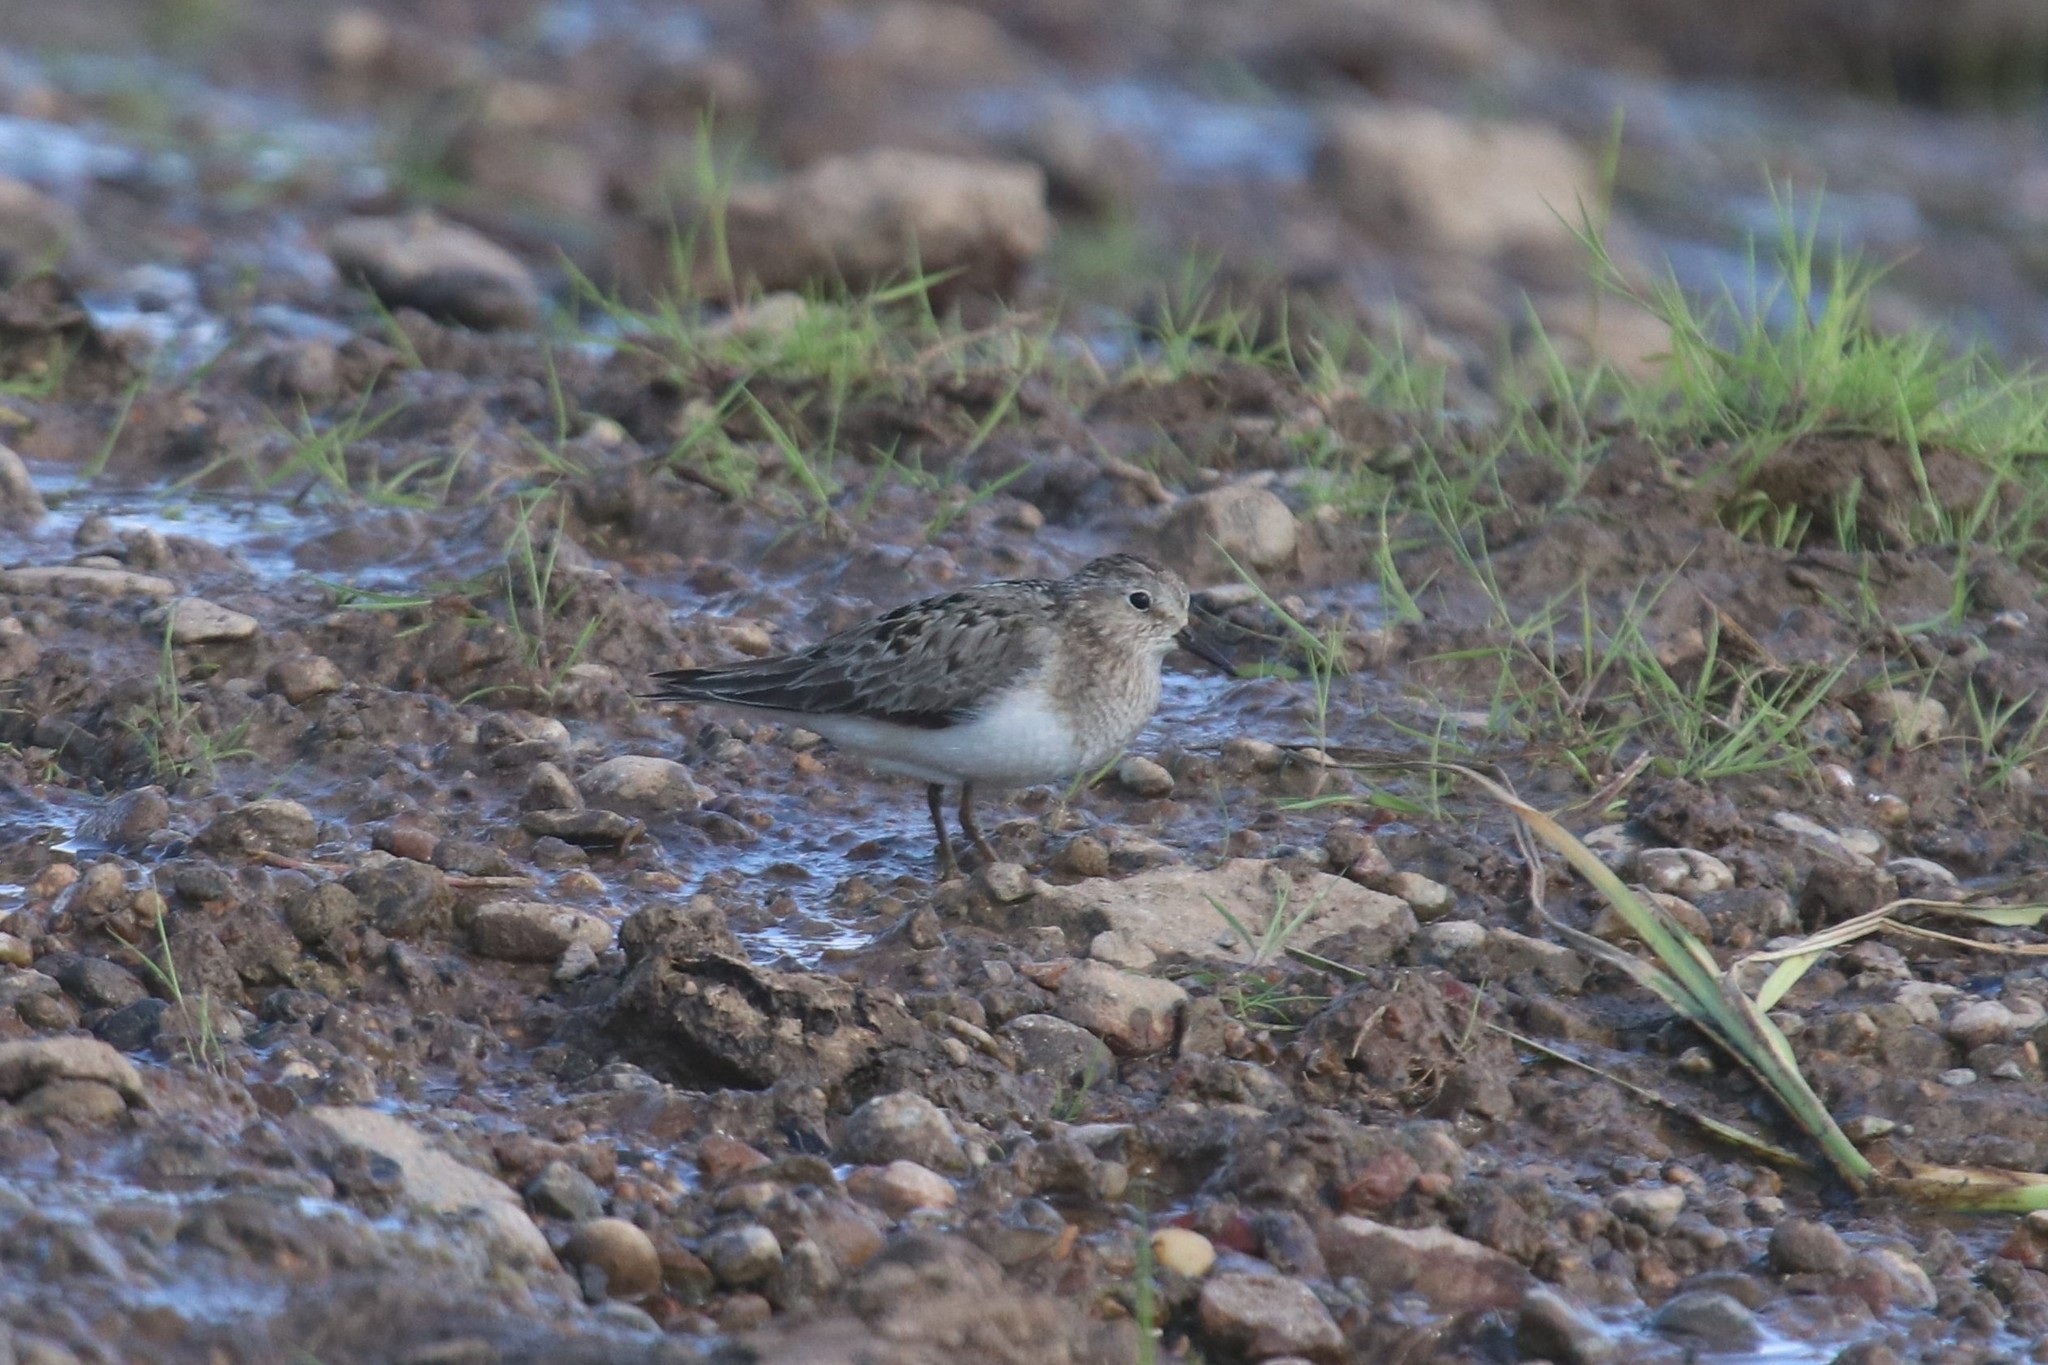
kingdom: Animalia
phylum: Chordata
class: Aves
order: Charadriiformes
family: Scolopacidae
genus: Calidris
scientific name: Calidris temminckii
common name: Temminck's stint
